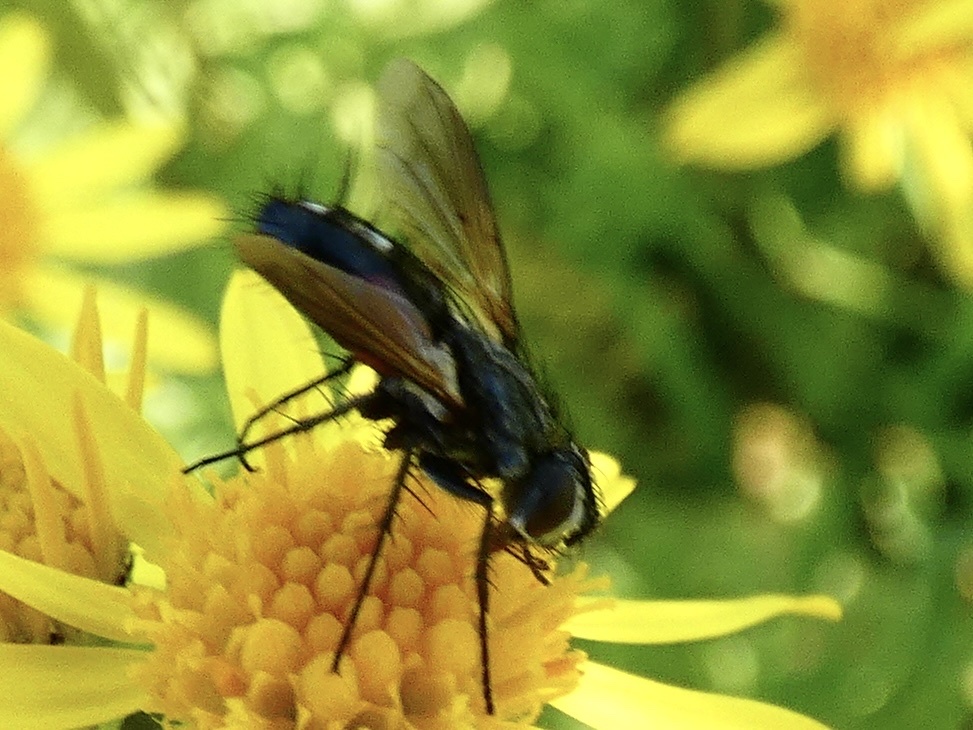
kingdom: Animalia
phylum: Arthropoda
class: Insecta
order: Diptera
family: Tachinidae
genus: Eriothrix
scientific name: Eriothrix rufomaculatus
